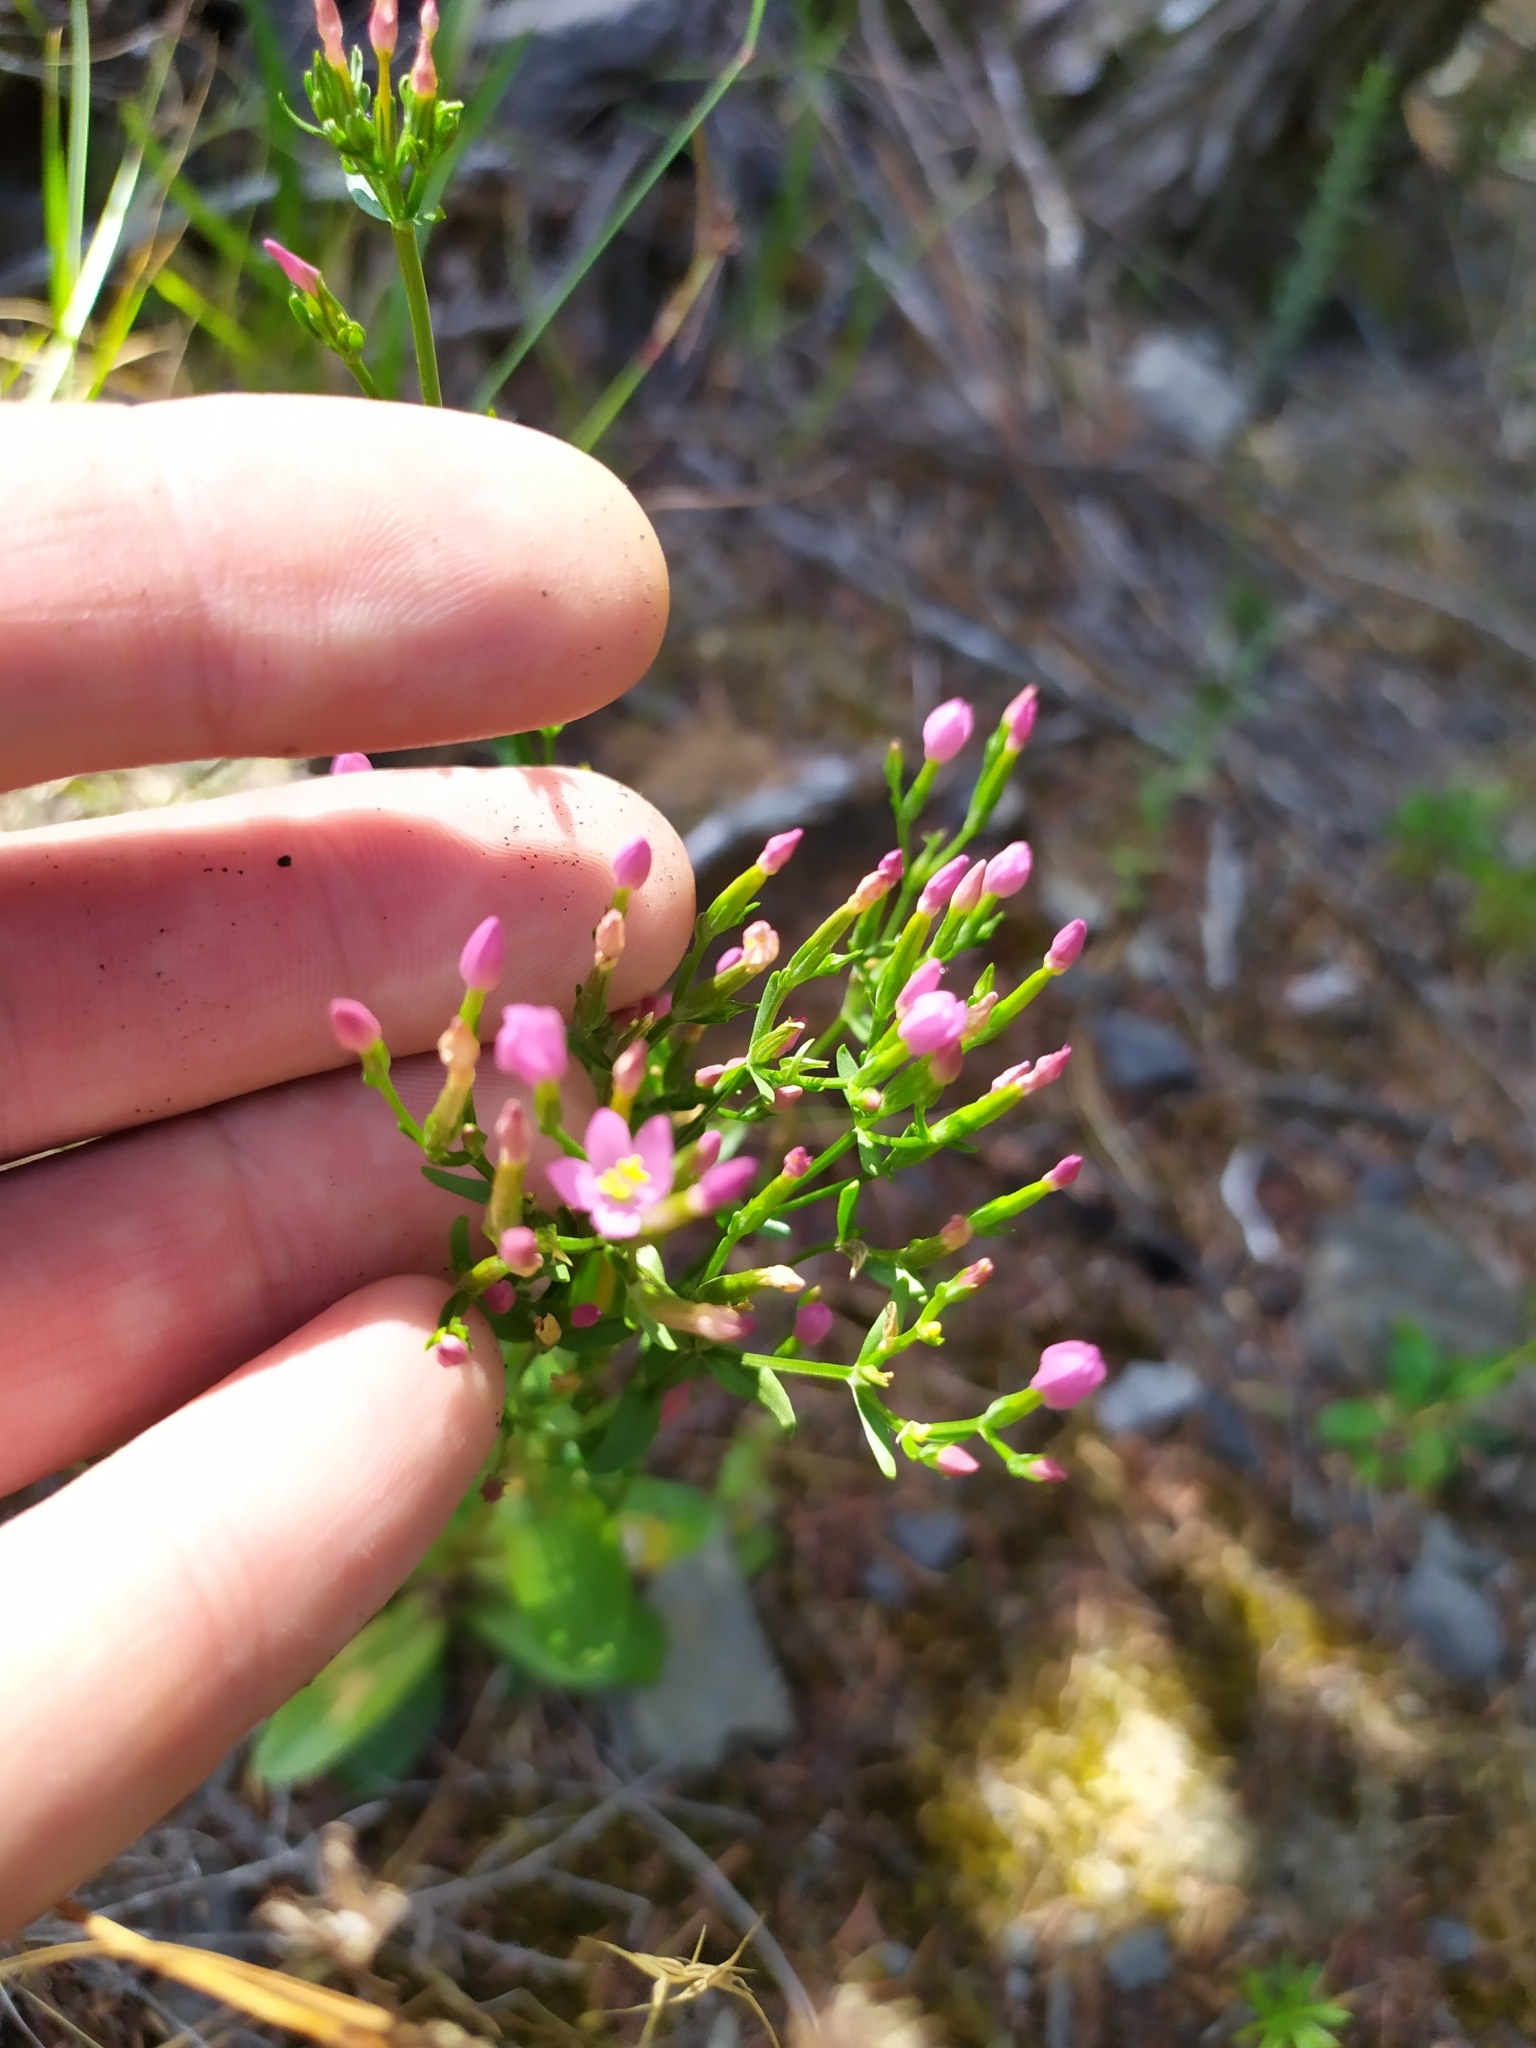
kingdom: Plantae
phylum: Tracheophyta
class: Magnoliopsida
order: Gentianales
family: Gentianaceae
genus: Centaurium
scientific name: Centaurium erythraea
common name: Common centaury
